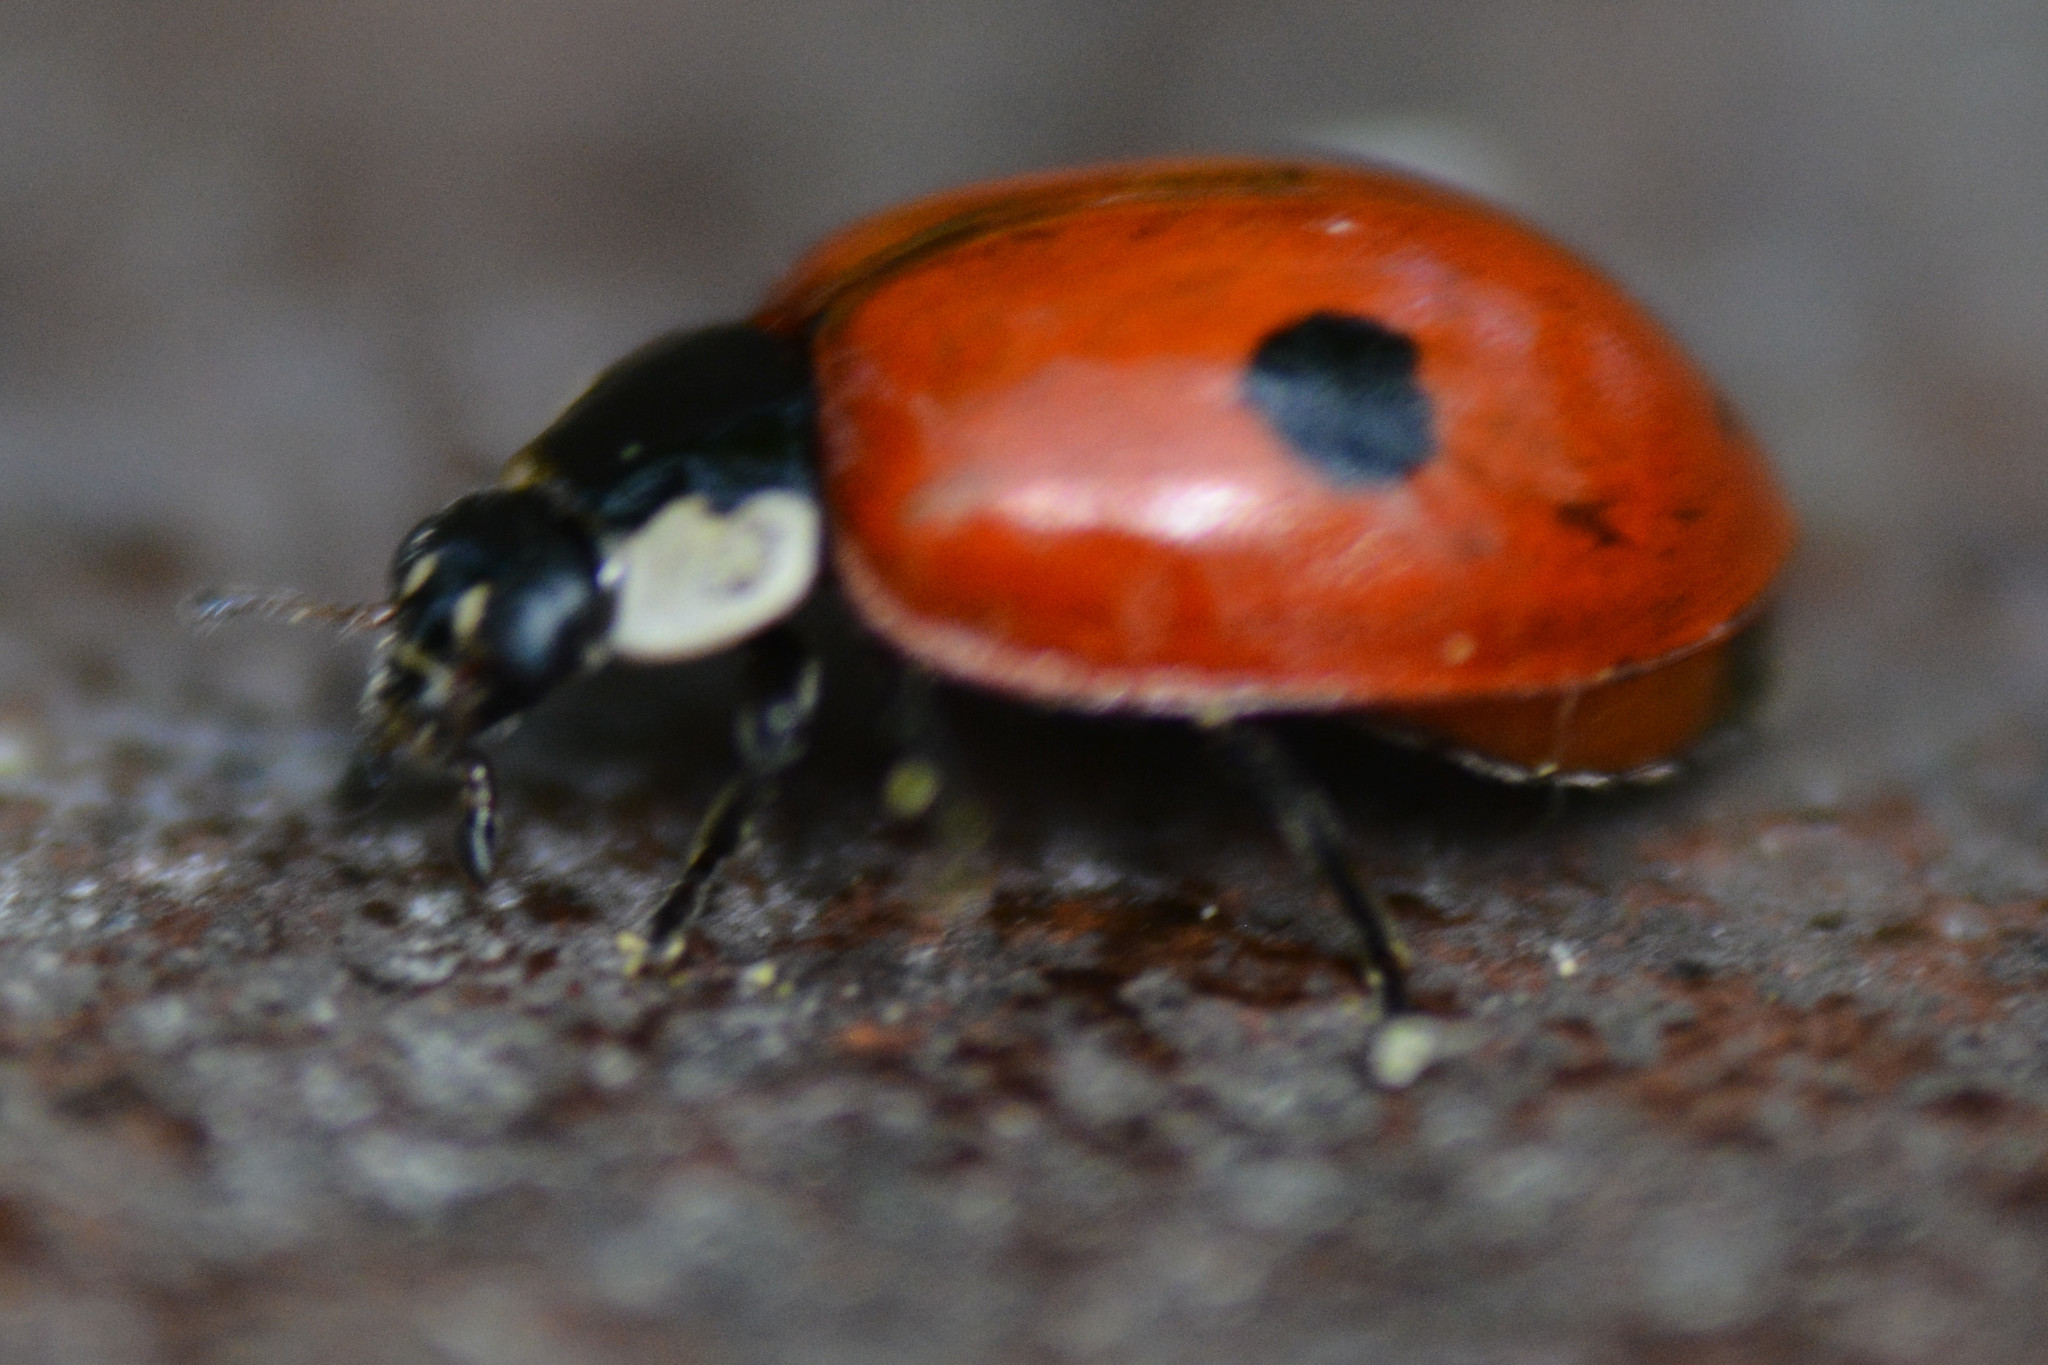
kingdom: Animalia
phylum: Arthropoda
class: Insecta
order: Coleoptera
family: Coccinellidae
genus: Adalia
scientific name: Adalia bipunctata
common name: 2-spot ladybird
